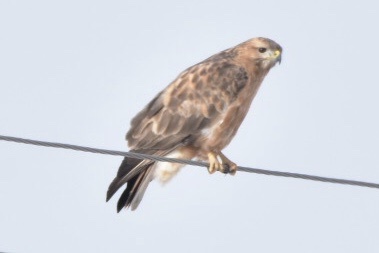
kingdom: Animalia
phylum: Chordata
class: Aves
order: Accipitriformes
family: Accipitridae
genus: Buteo
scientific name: Buteo buteo
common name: Common buzzard
